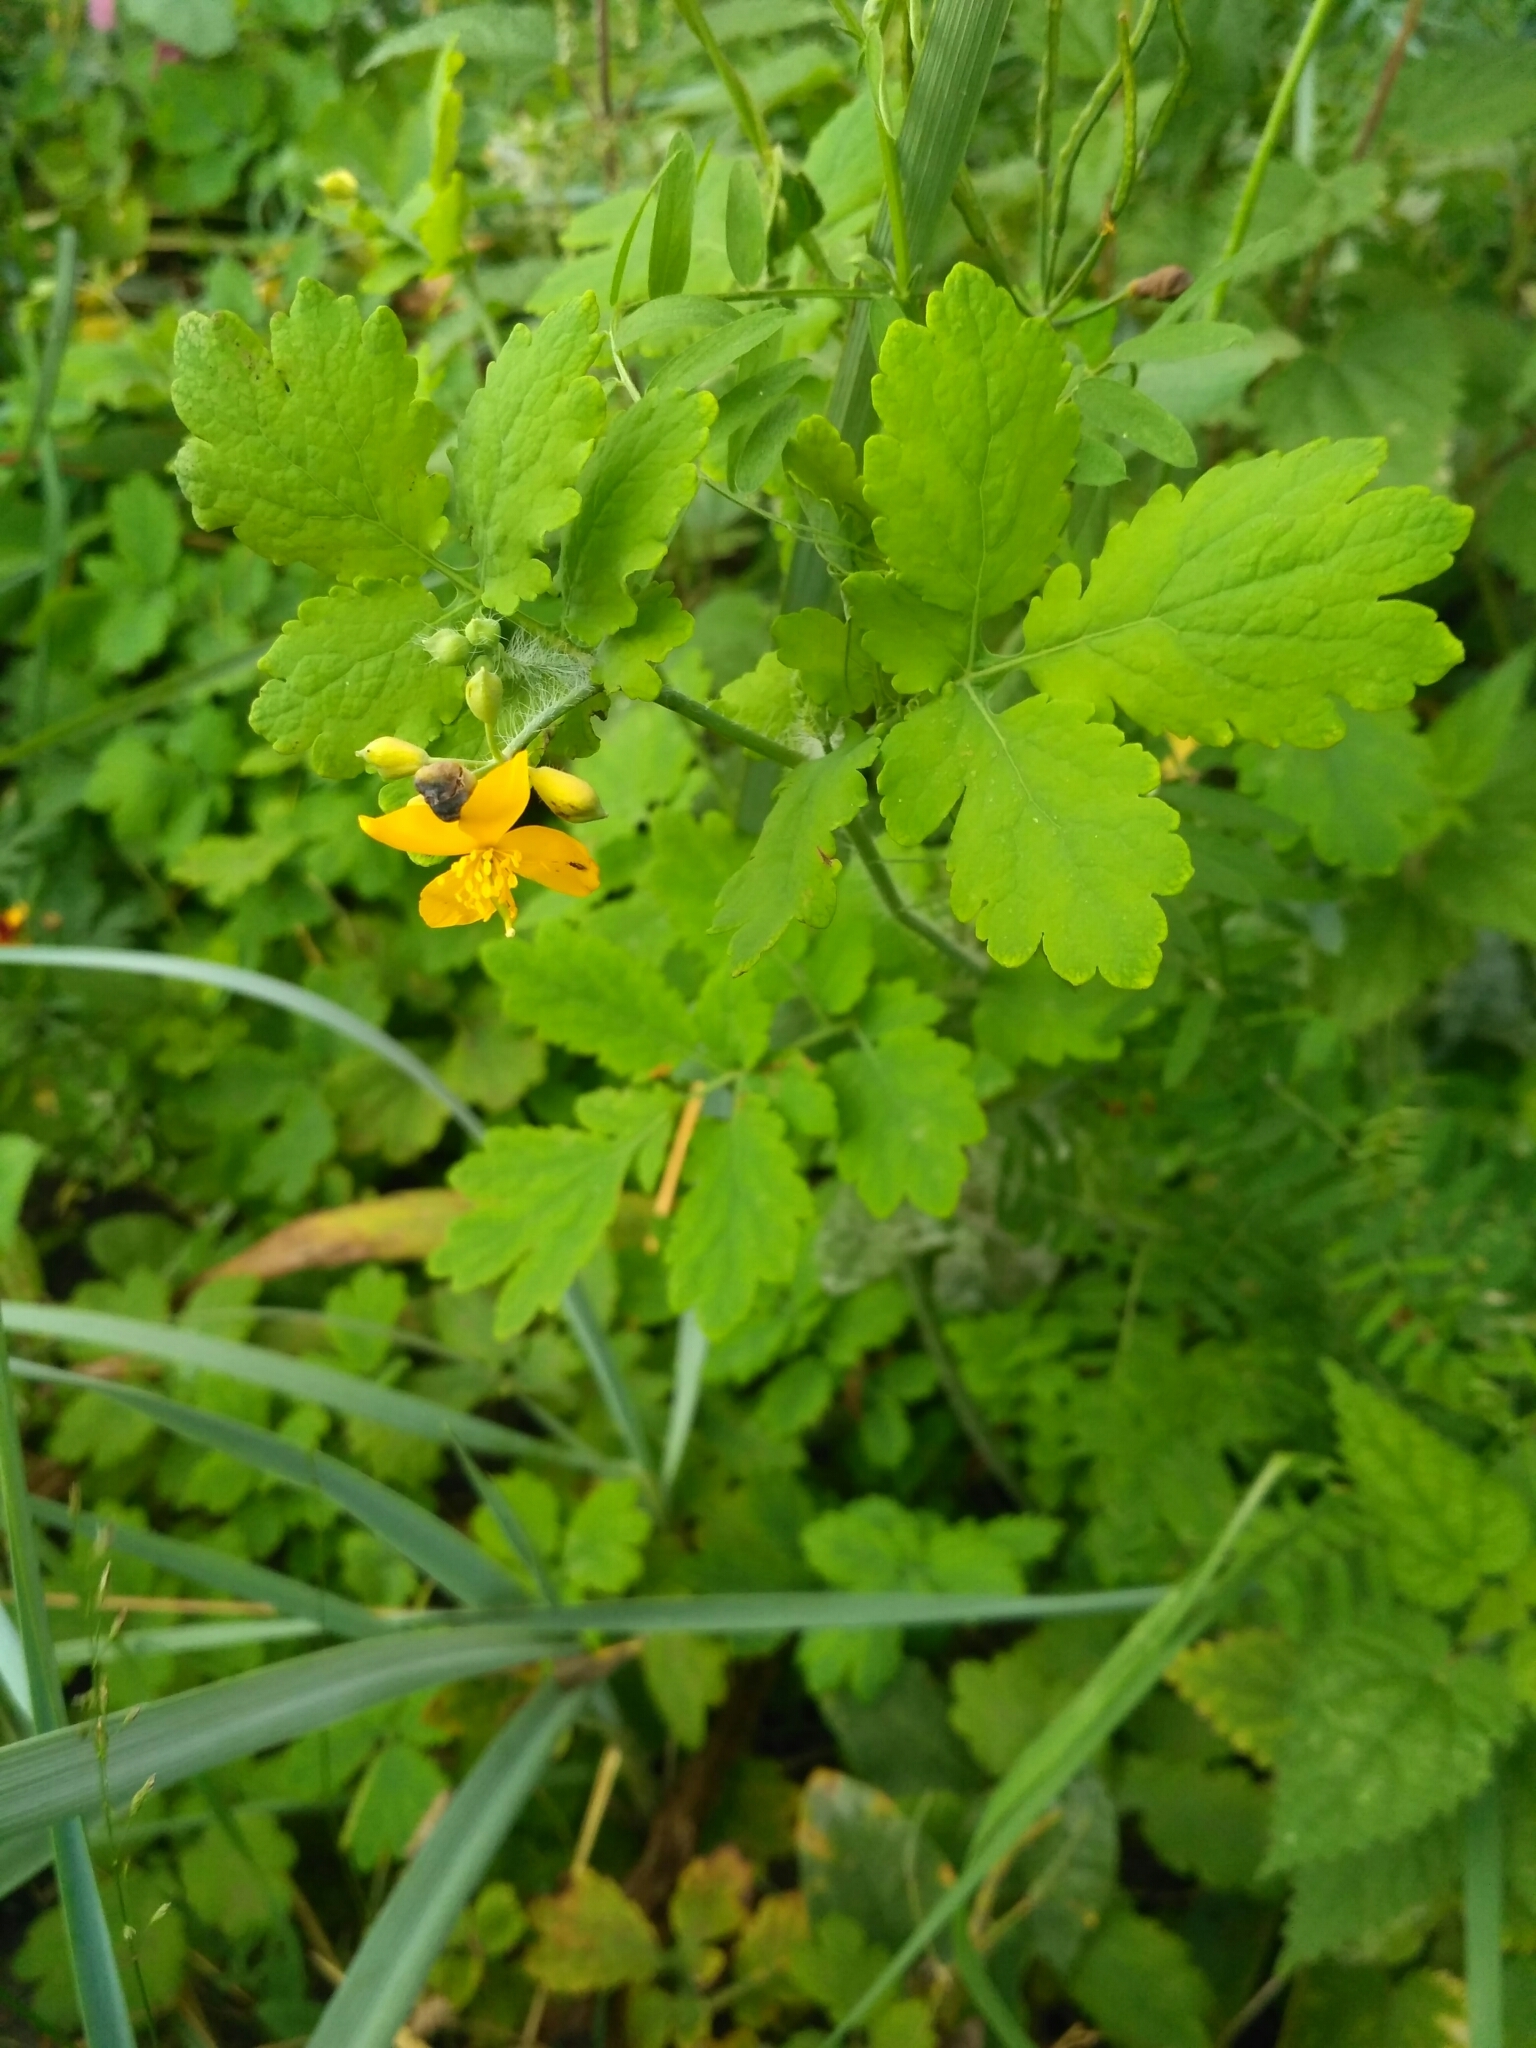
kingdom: Plantae
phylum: Tracheophyta
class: Magnoliopsida
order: Ranunculales
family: Papaveraceae
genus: Chelidonium
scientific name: Chelidonium majus
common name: Greater celandine
